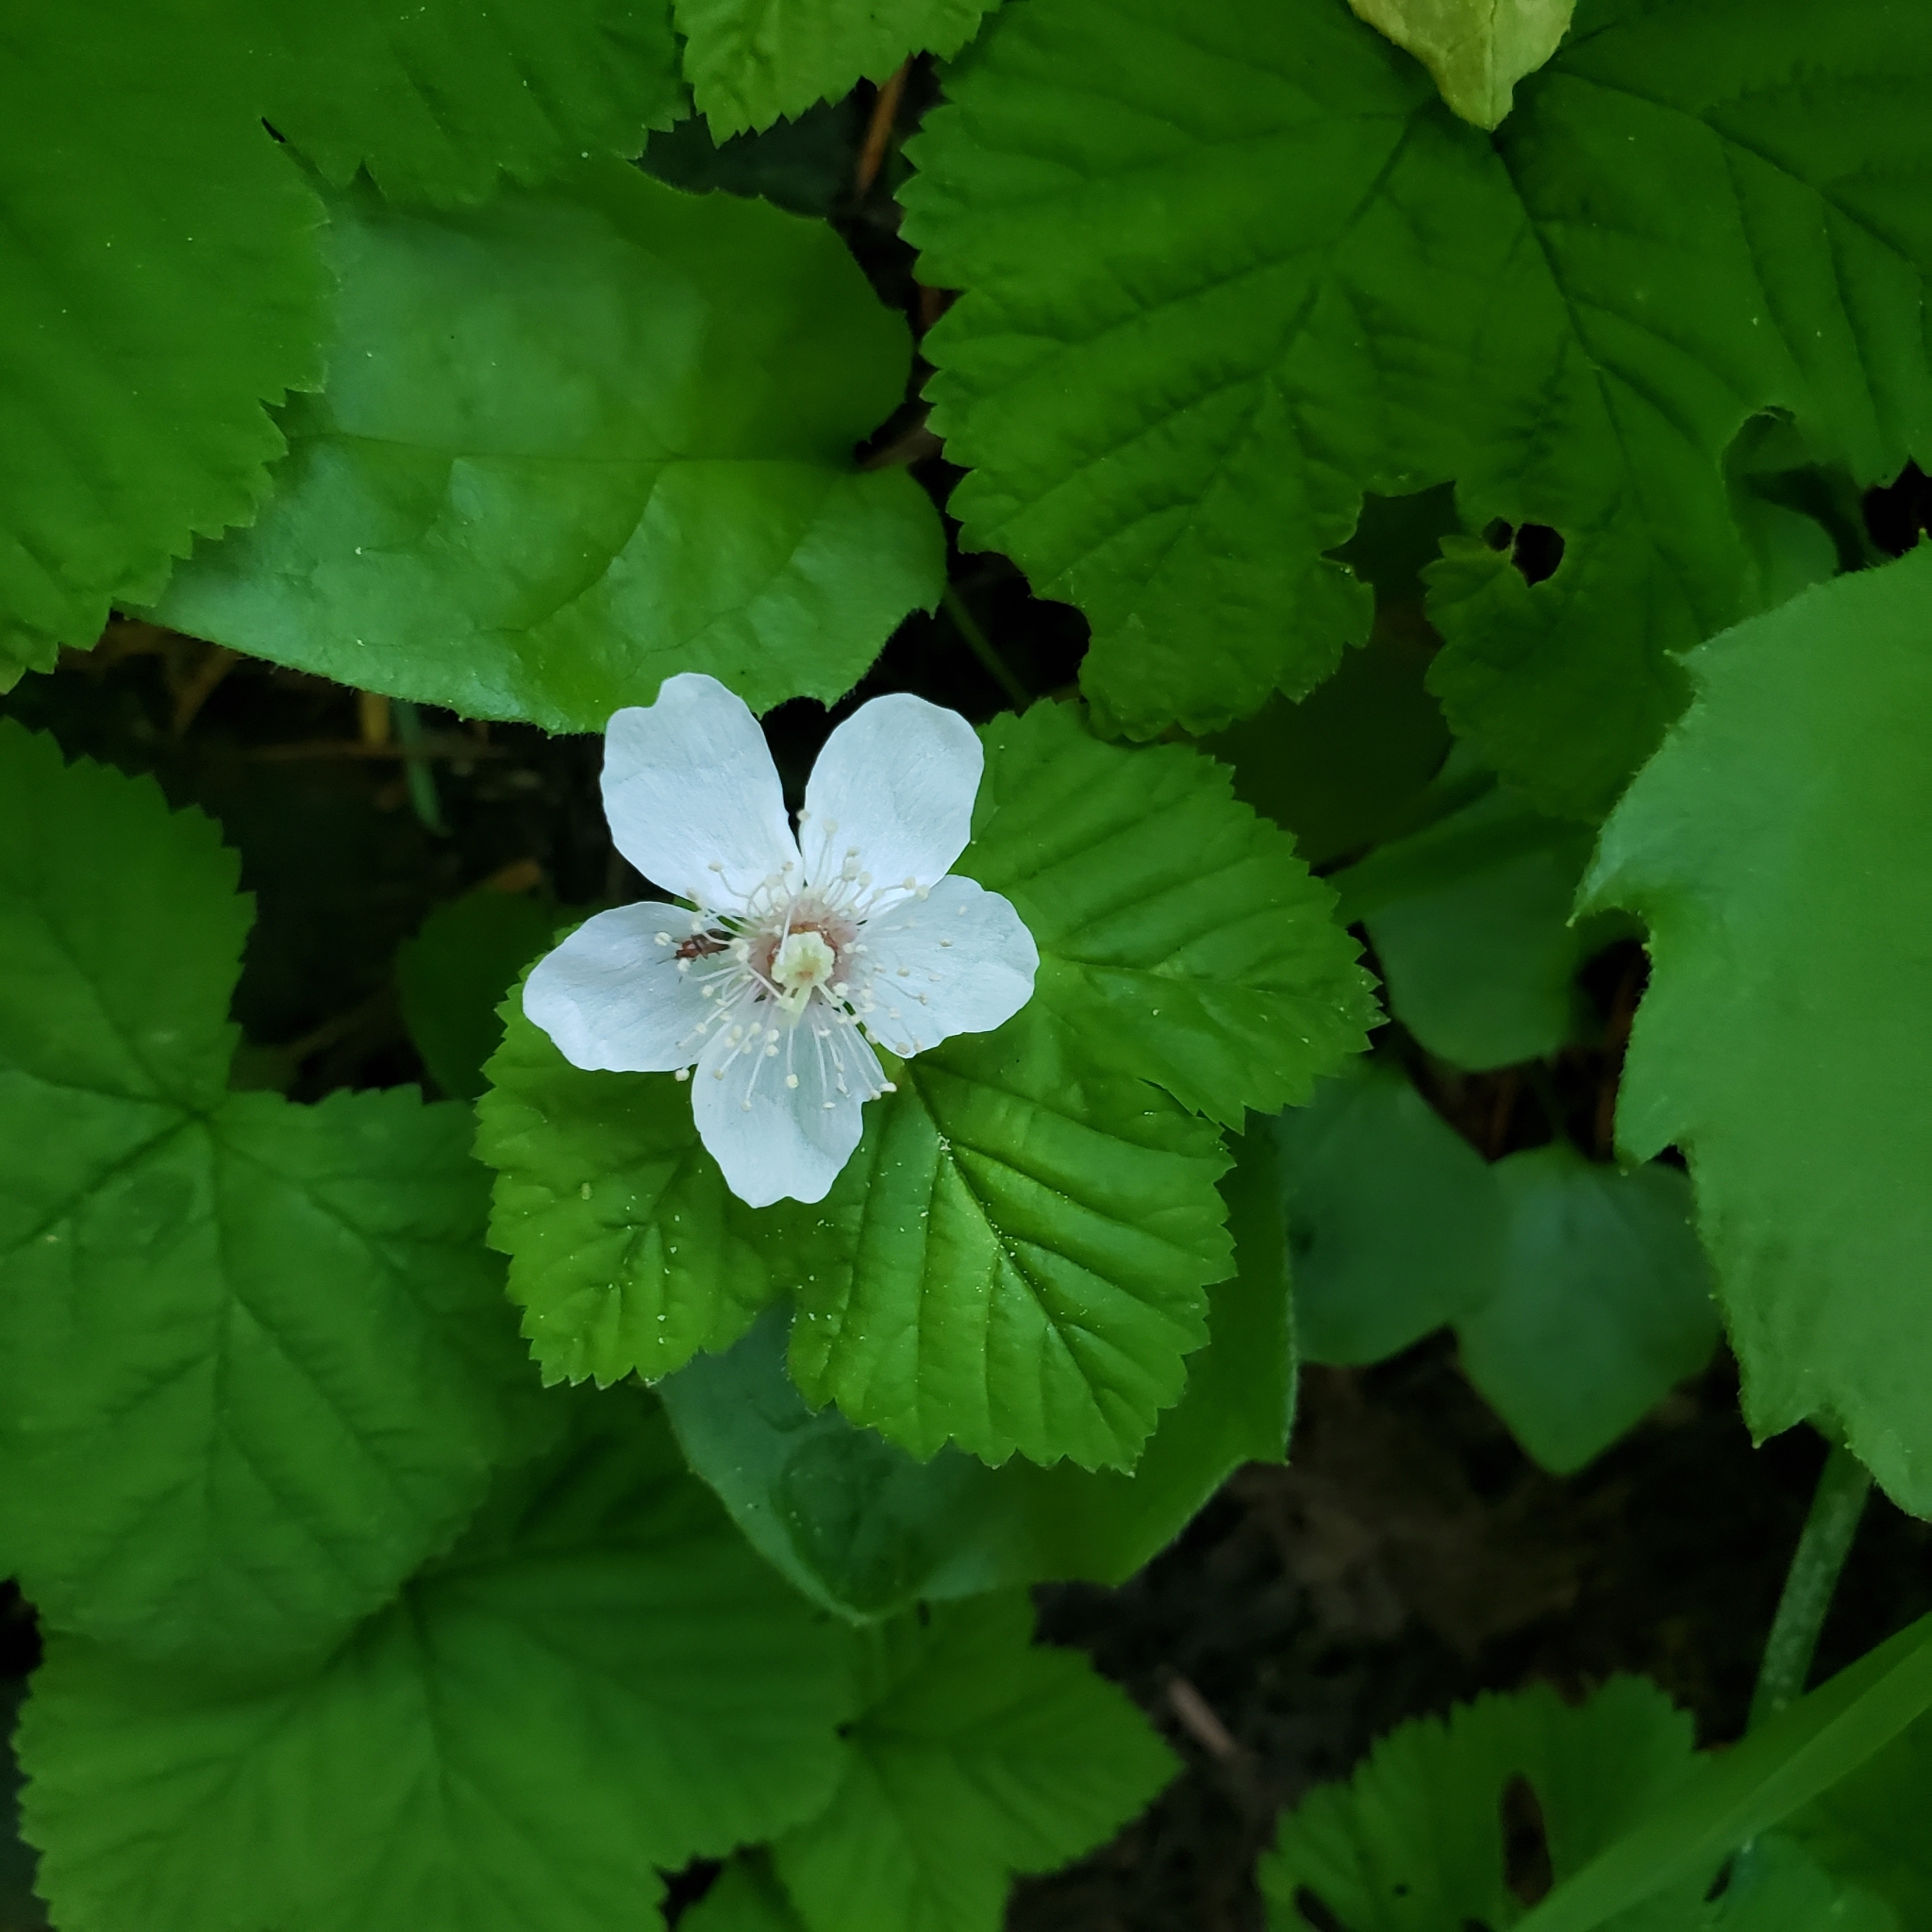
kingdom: Plantae
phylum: Tracheophyta
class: Magnoliopsida
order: Rosales
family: Rosaceae
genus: Rubus
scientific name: Rubus lasiococcus
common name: Dwarf bramble
